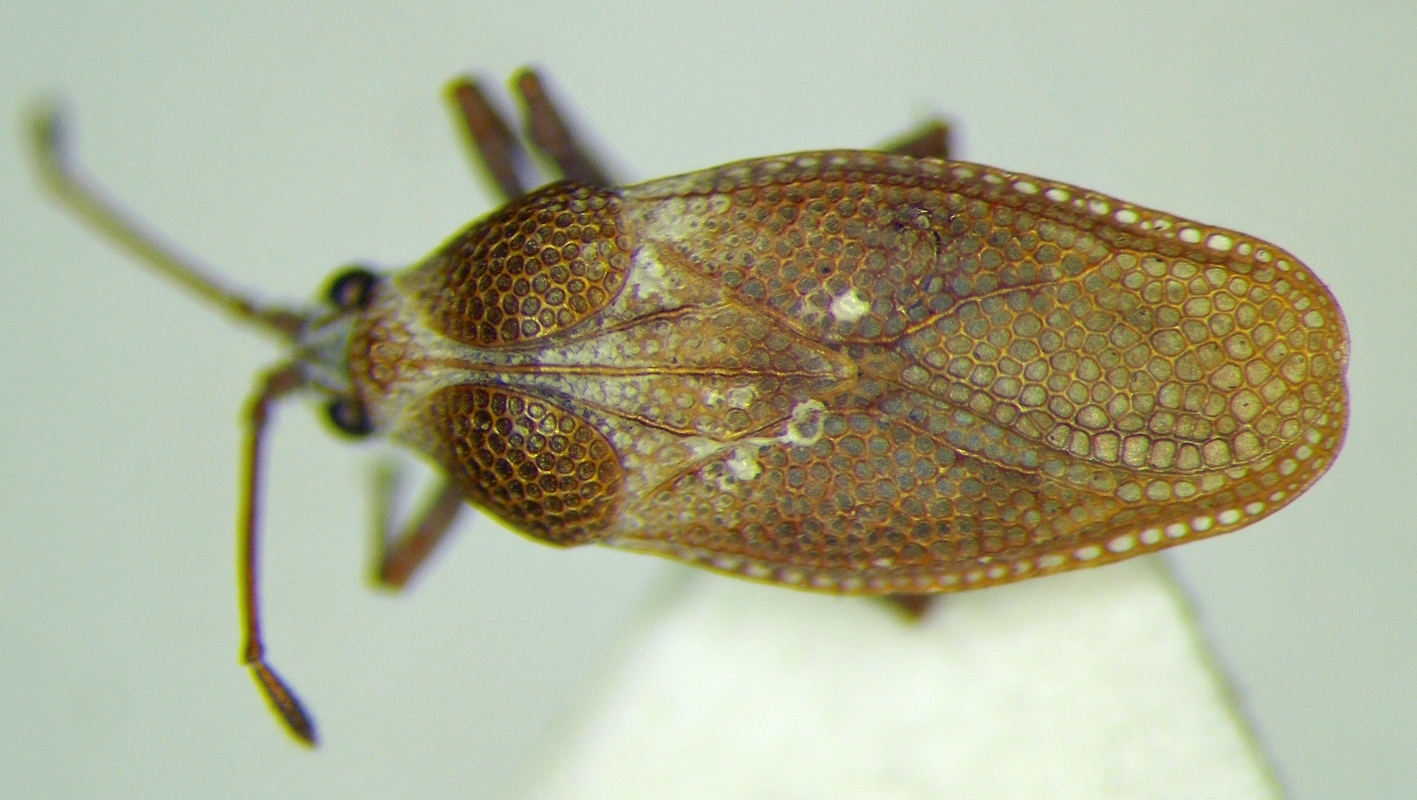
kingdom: Animalia
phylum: Arthropoda
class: Insecta
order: Hemiptera
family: Tingidae
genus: Onchochila
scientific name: Onchochila simplex
